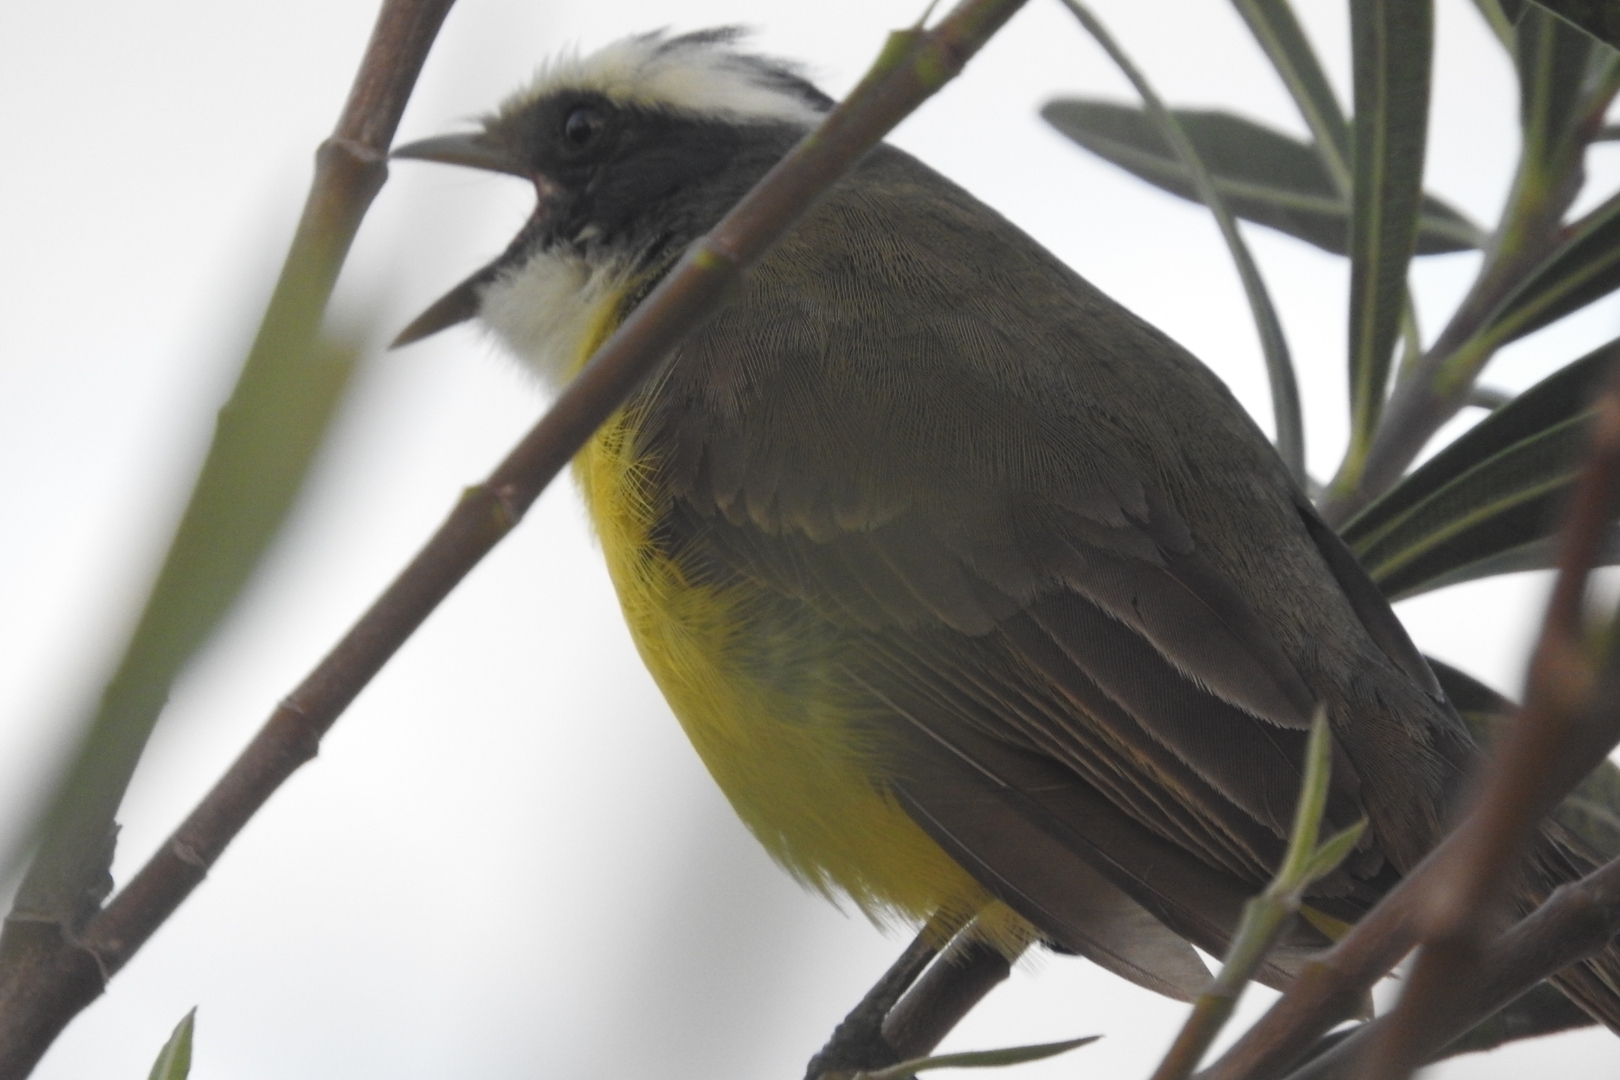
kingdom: Animalia
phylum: Chordata
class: Aves
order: Passeriformes
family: Tyrannidae
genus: Myiozetetes
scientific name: Myiozetetes similis
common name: Social flycatcher
